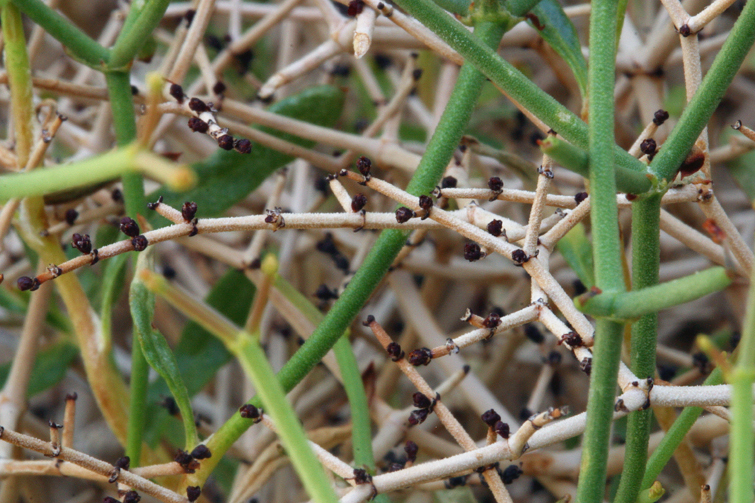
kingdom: Plantae
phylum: Tracheophyta
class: Magnoliopsida
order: Caryophyllales
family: Polygonaceae
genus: Eriogonum
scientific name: Eriogonum heermannii
